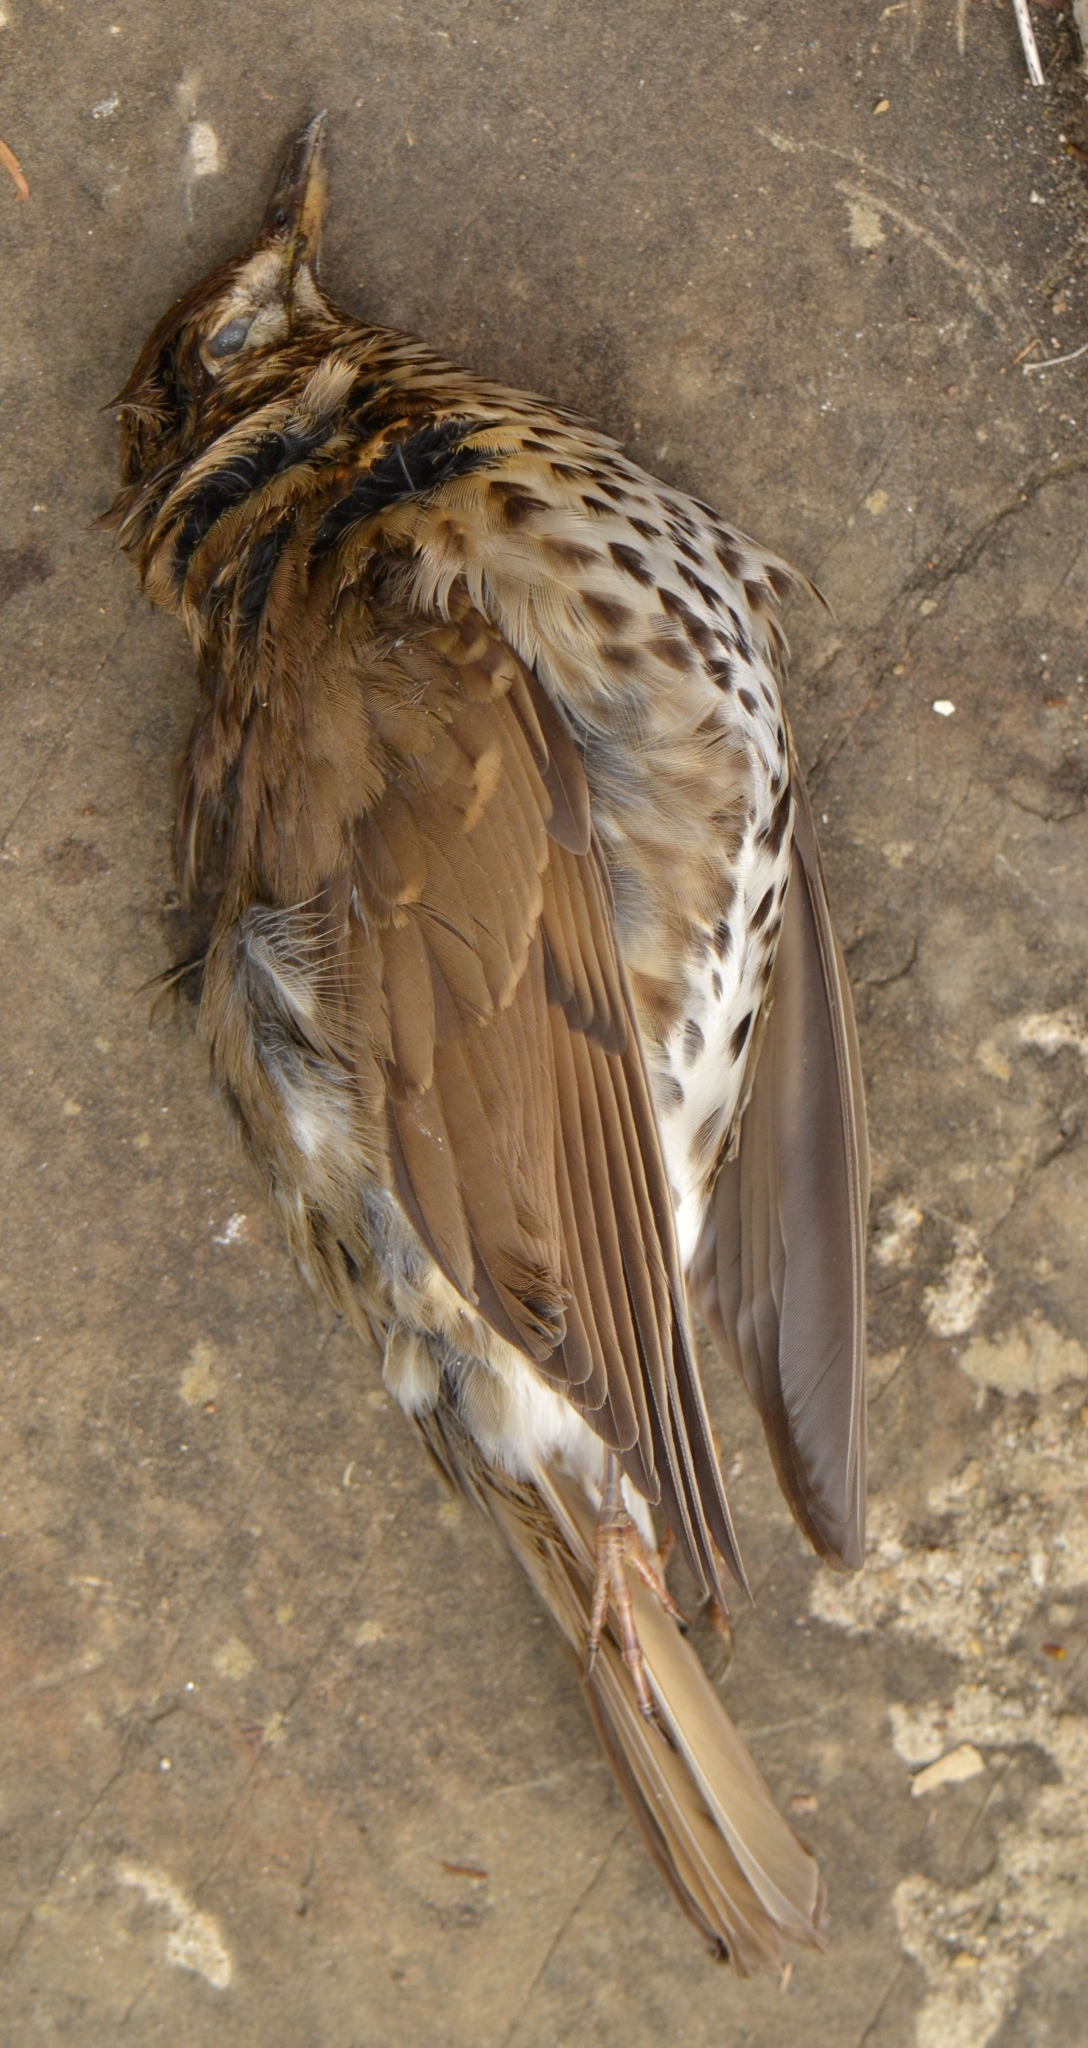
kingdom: Animalia
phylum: Chordata
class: Aves
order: Passeriformes
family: Turdidae
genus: Turdus
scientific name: Turdus philomelos
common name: Song thrush
